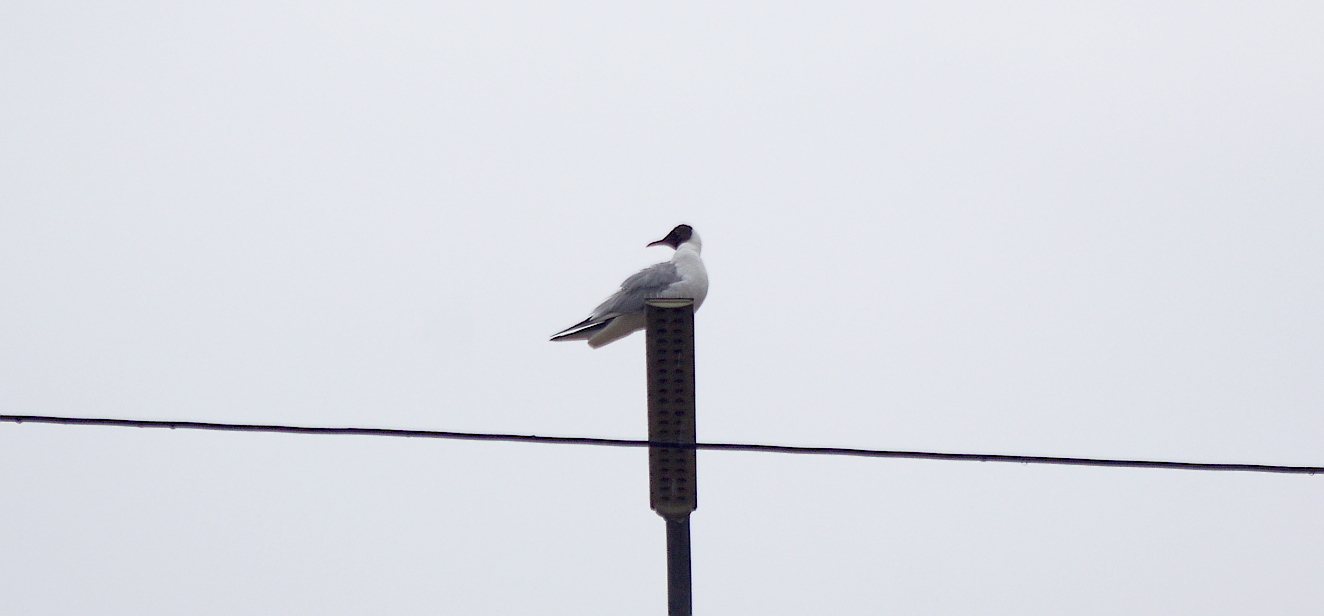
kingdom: Animalia
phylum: Chordata
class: Aves
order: Charadriiformes
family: Laridae
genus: Chroicocephalus
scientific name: Chroicocephalus ridibundus
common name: Black-headed gull
